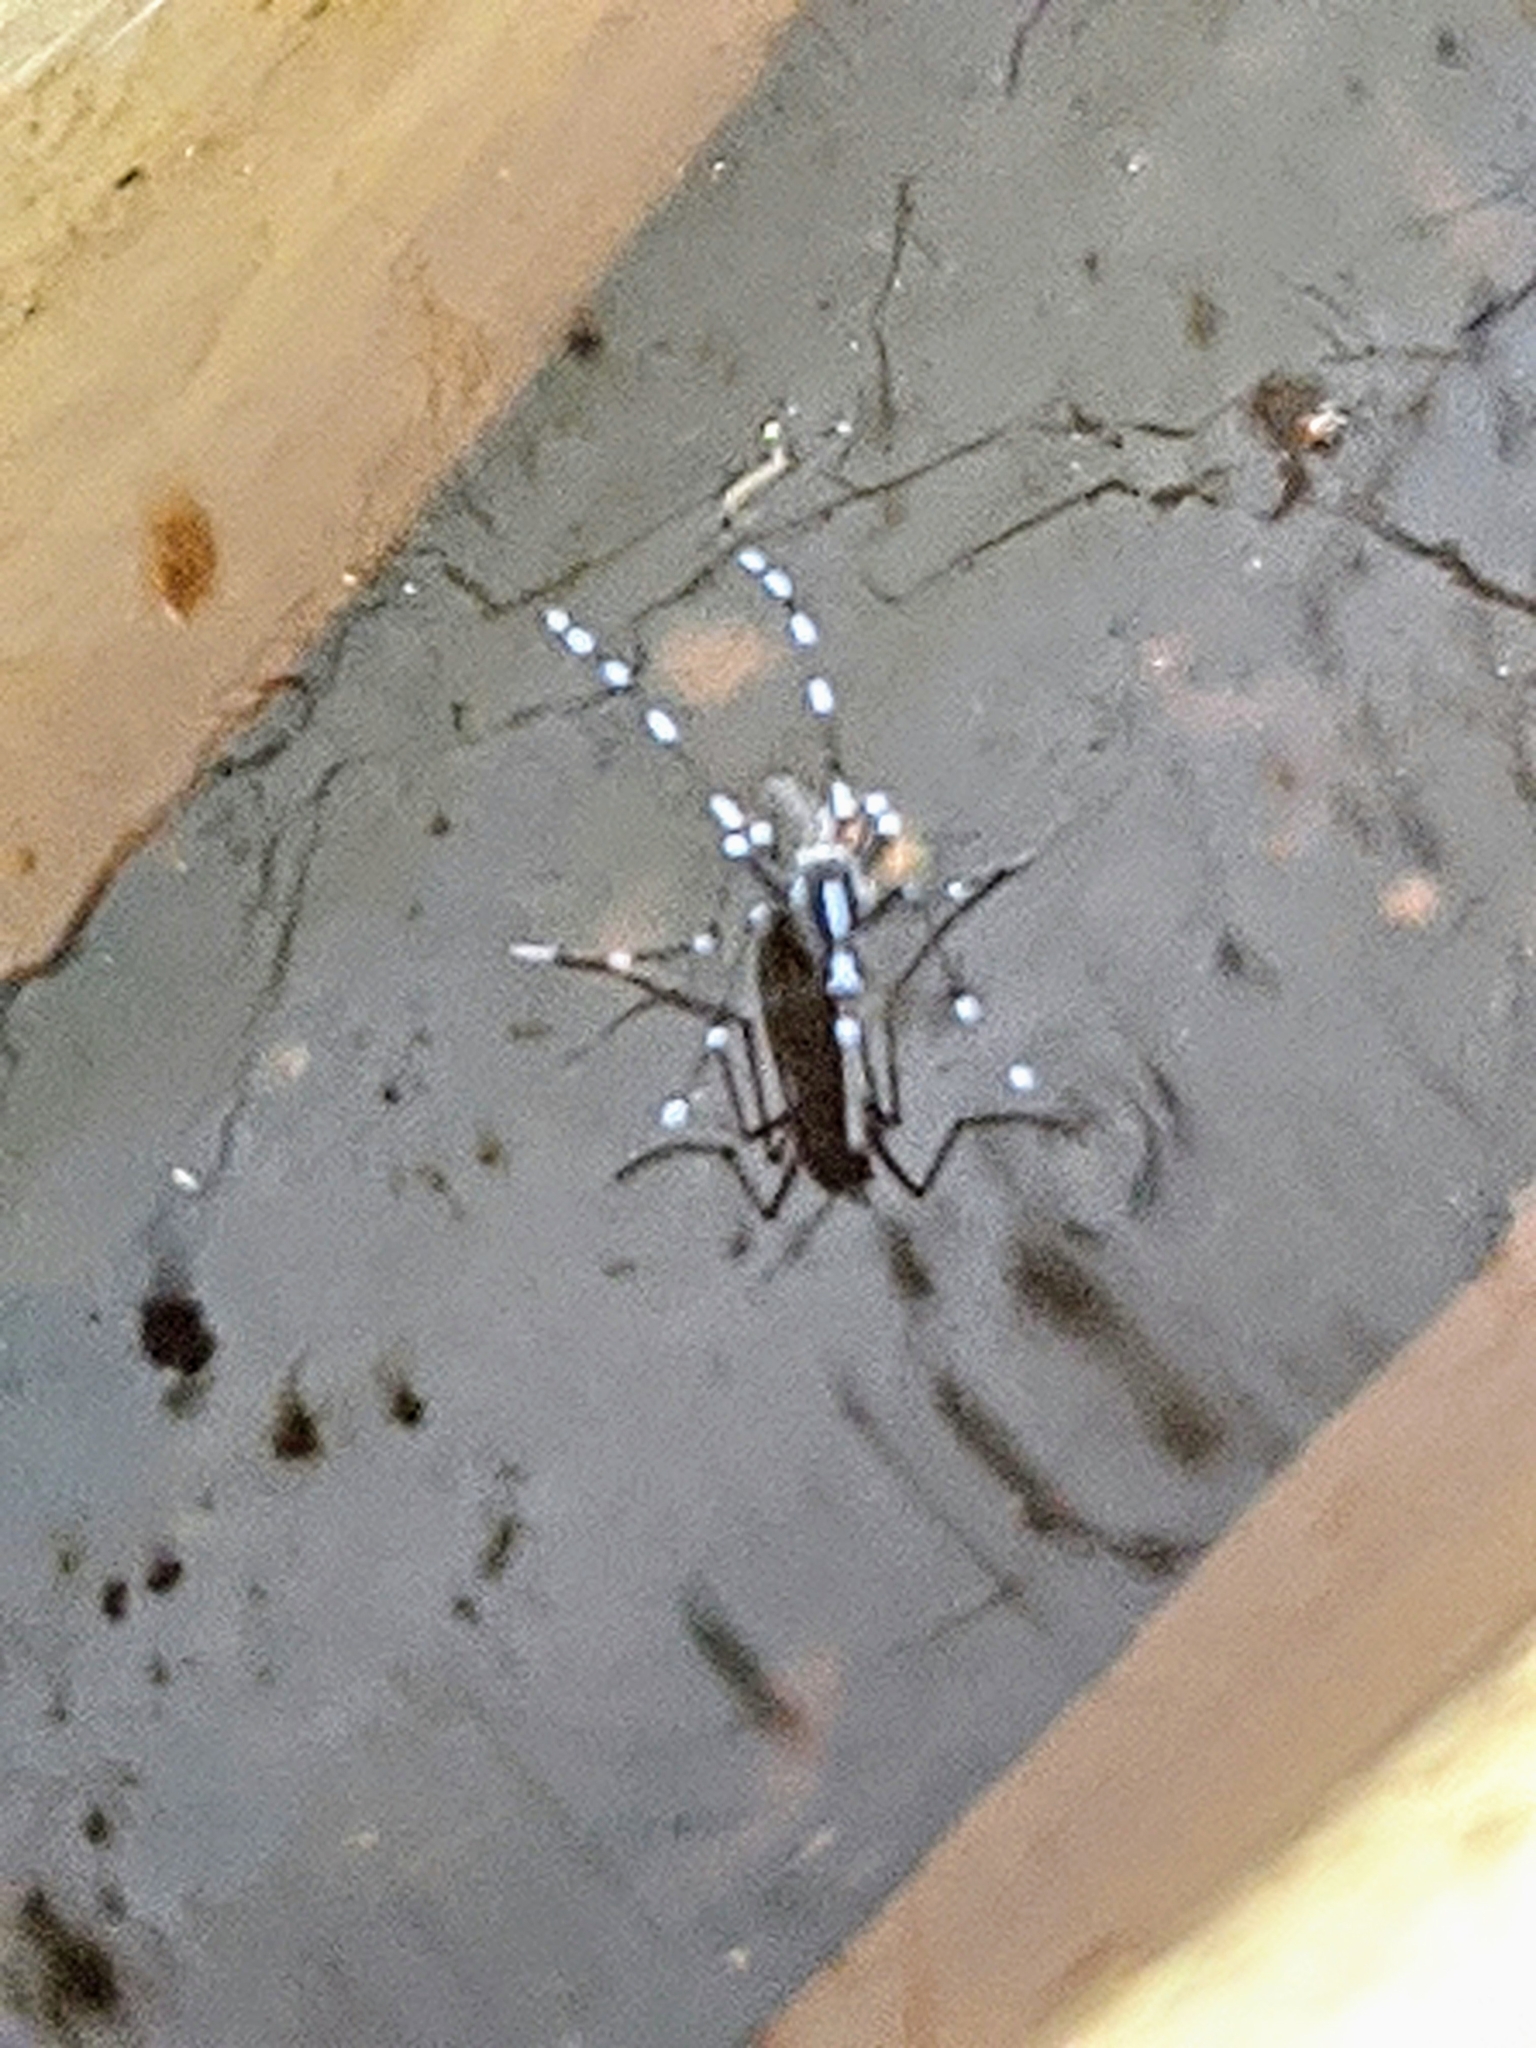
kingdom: Animalia
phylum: Arthropoda
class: Insecta
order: Diptera
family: Culicidae
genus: Aedes
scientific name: Aedes albopictus
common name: Tiger mosquito
